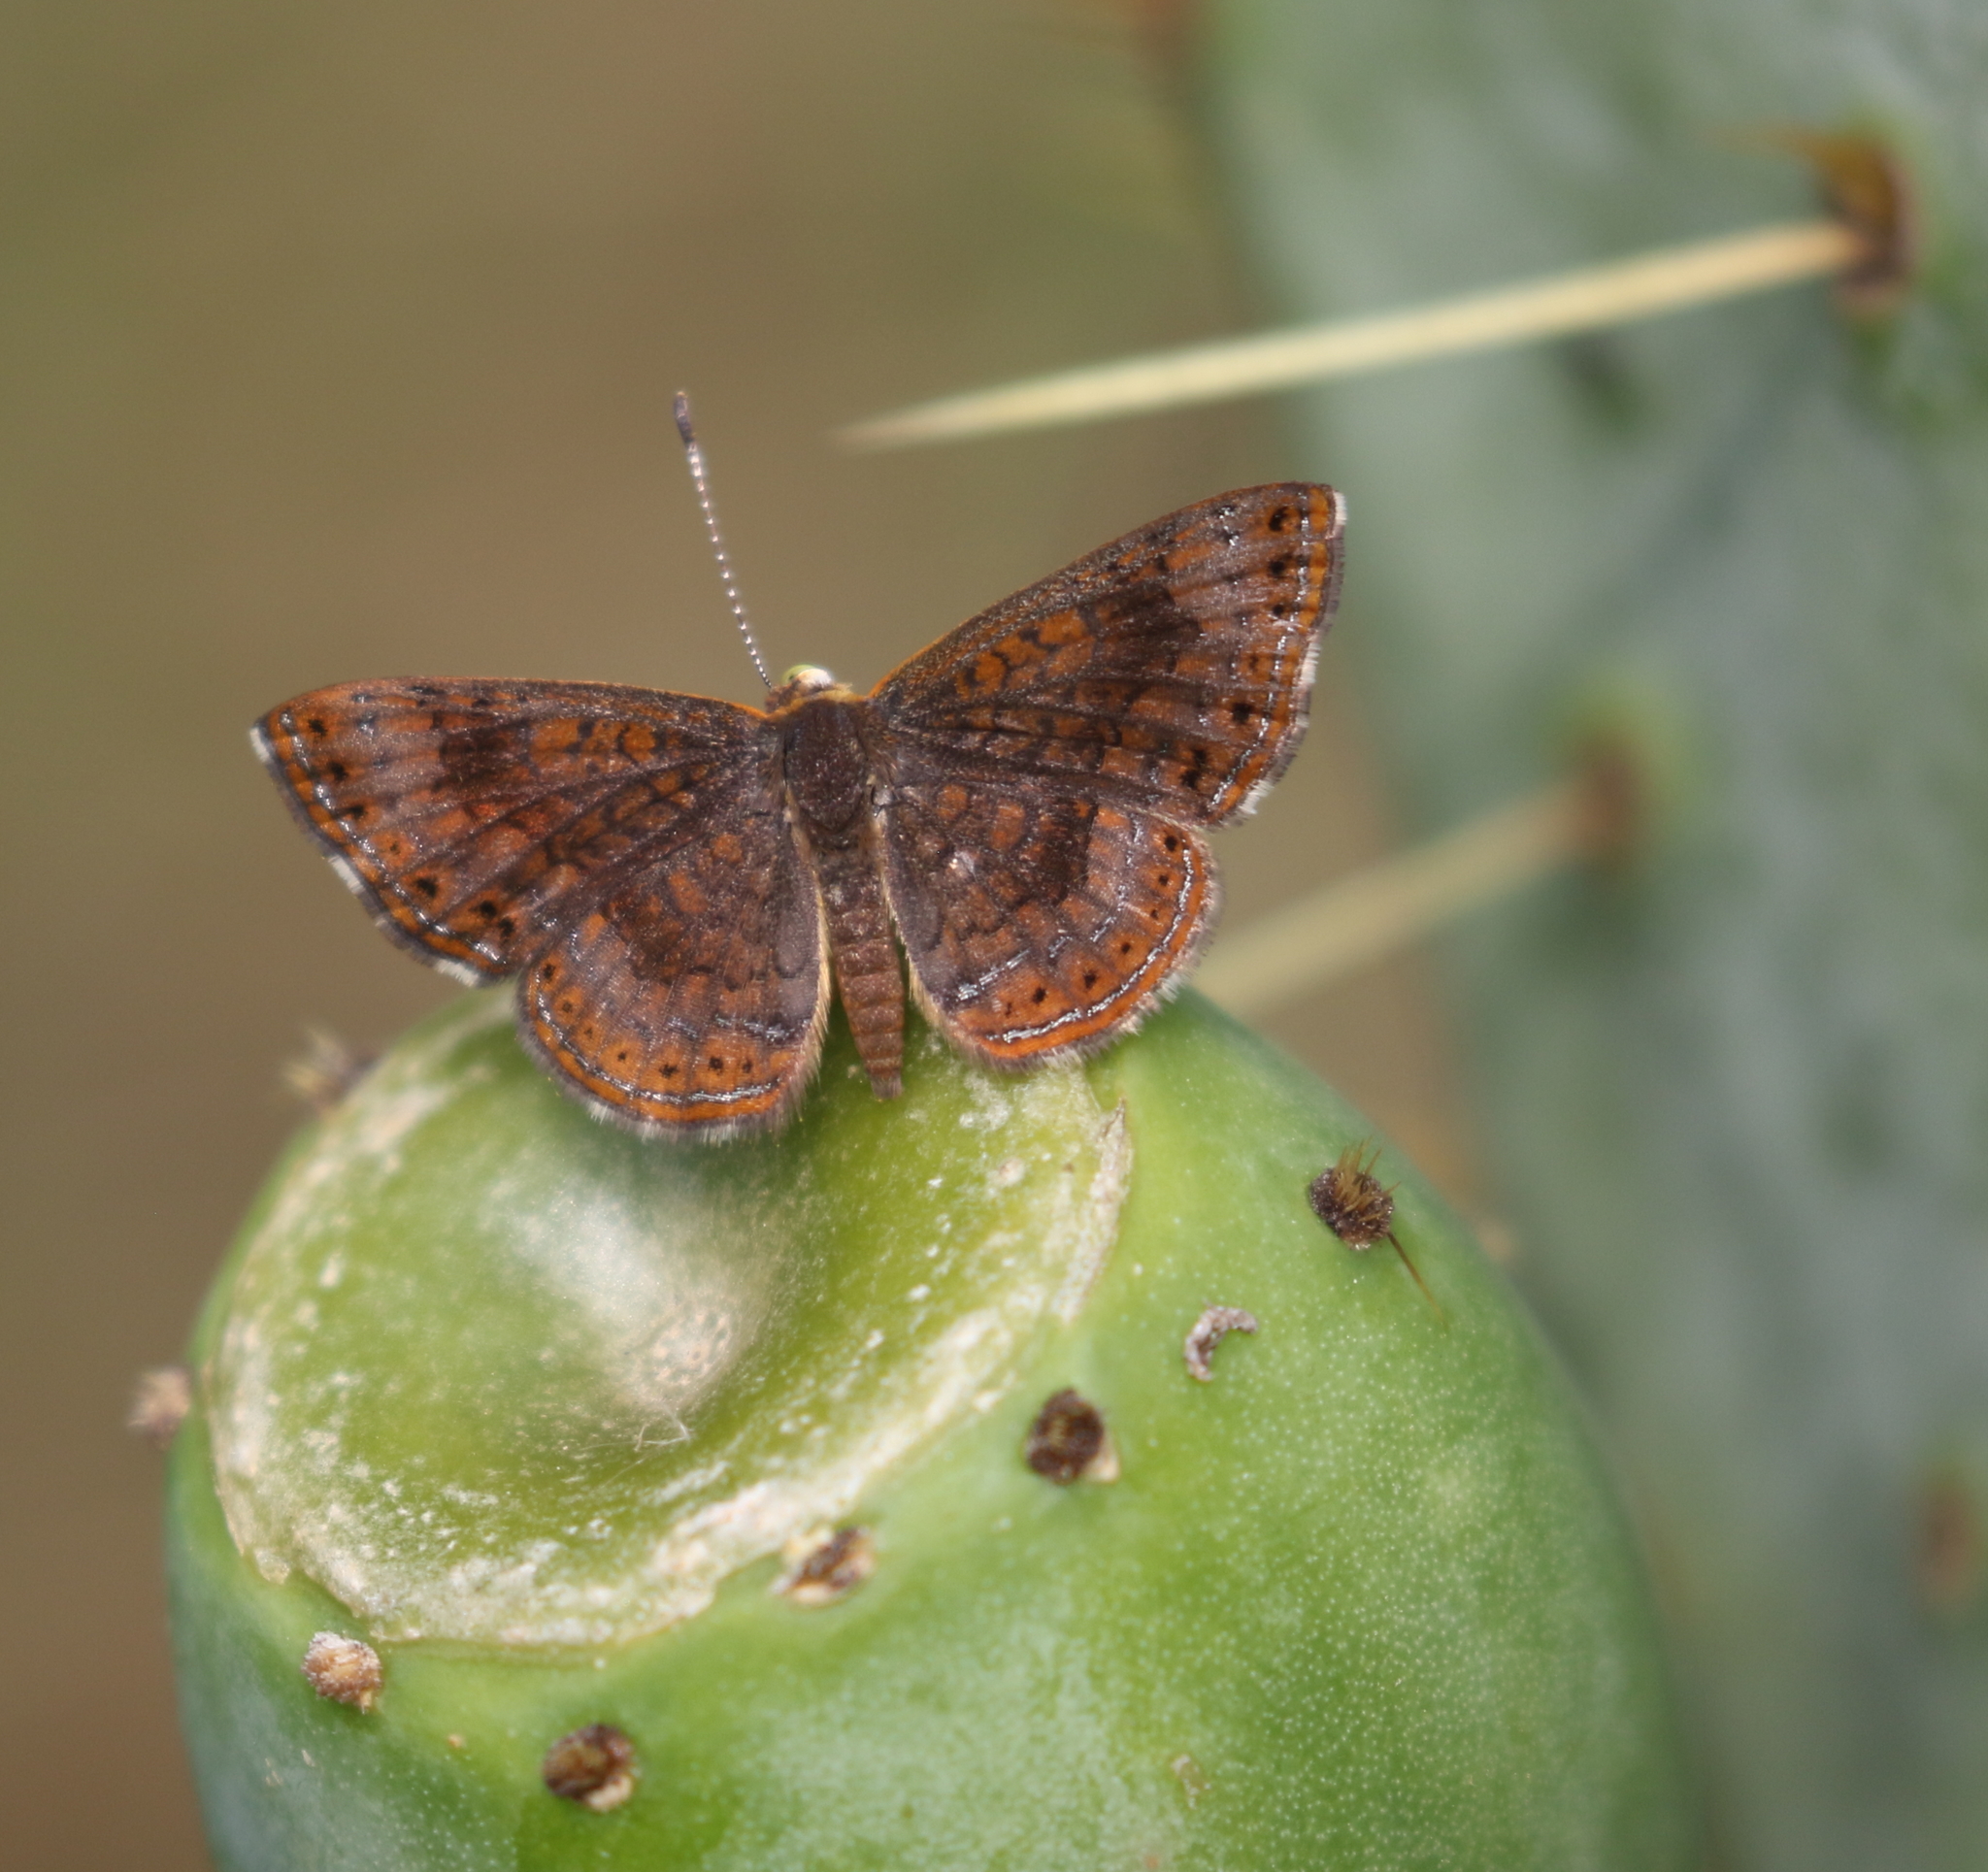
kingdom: Animalia
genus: Calephelis
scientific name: Calephelis nemesis
